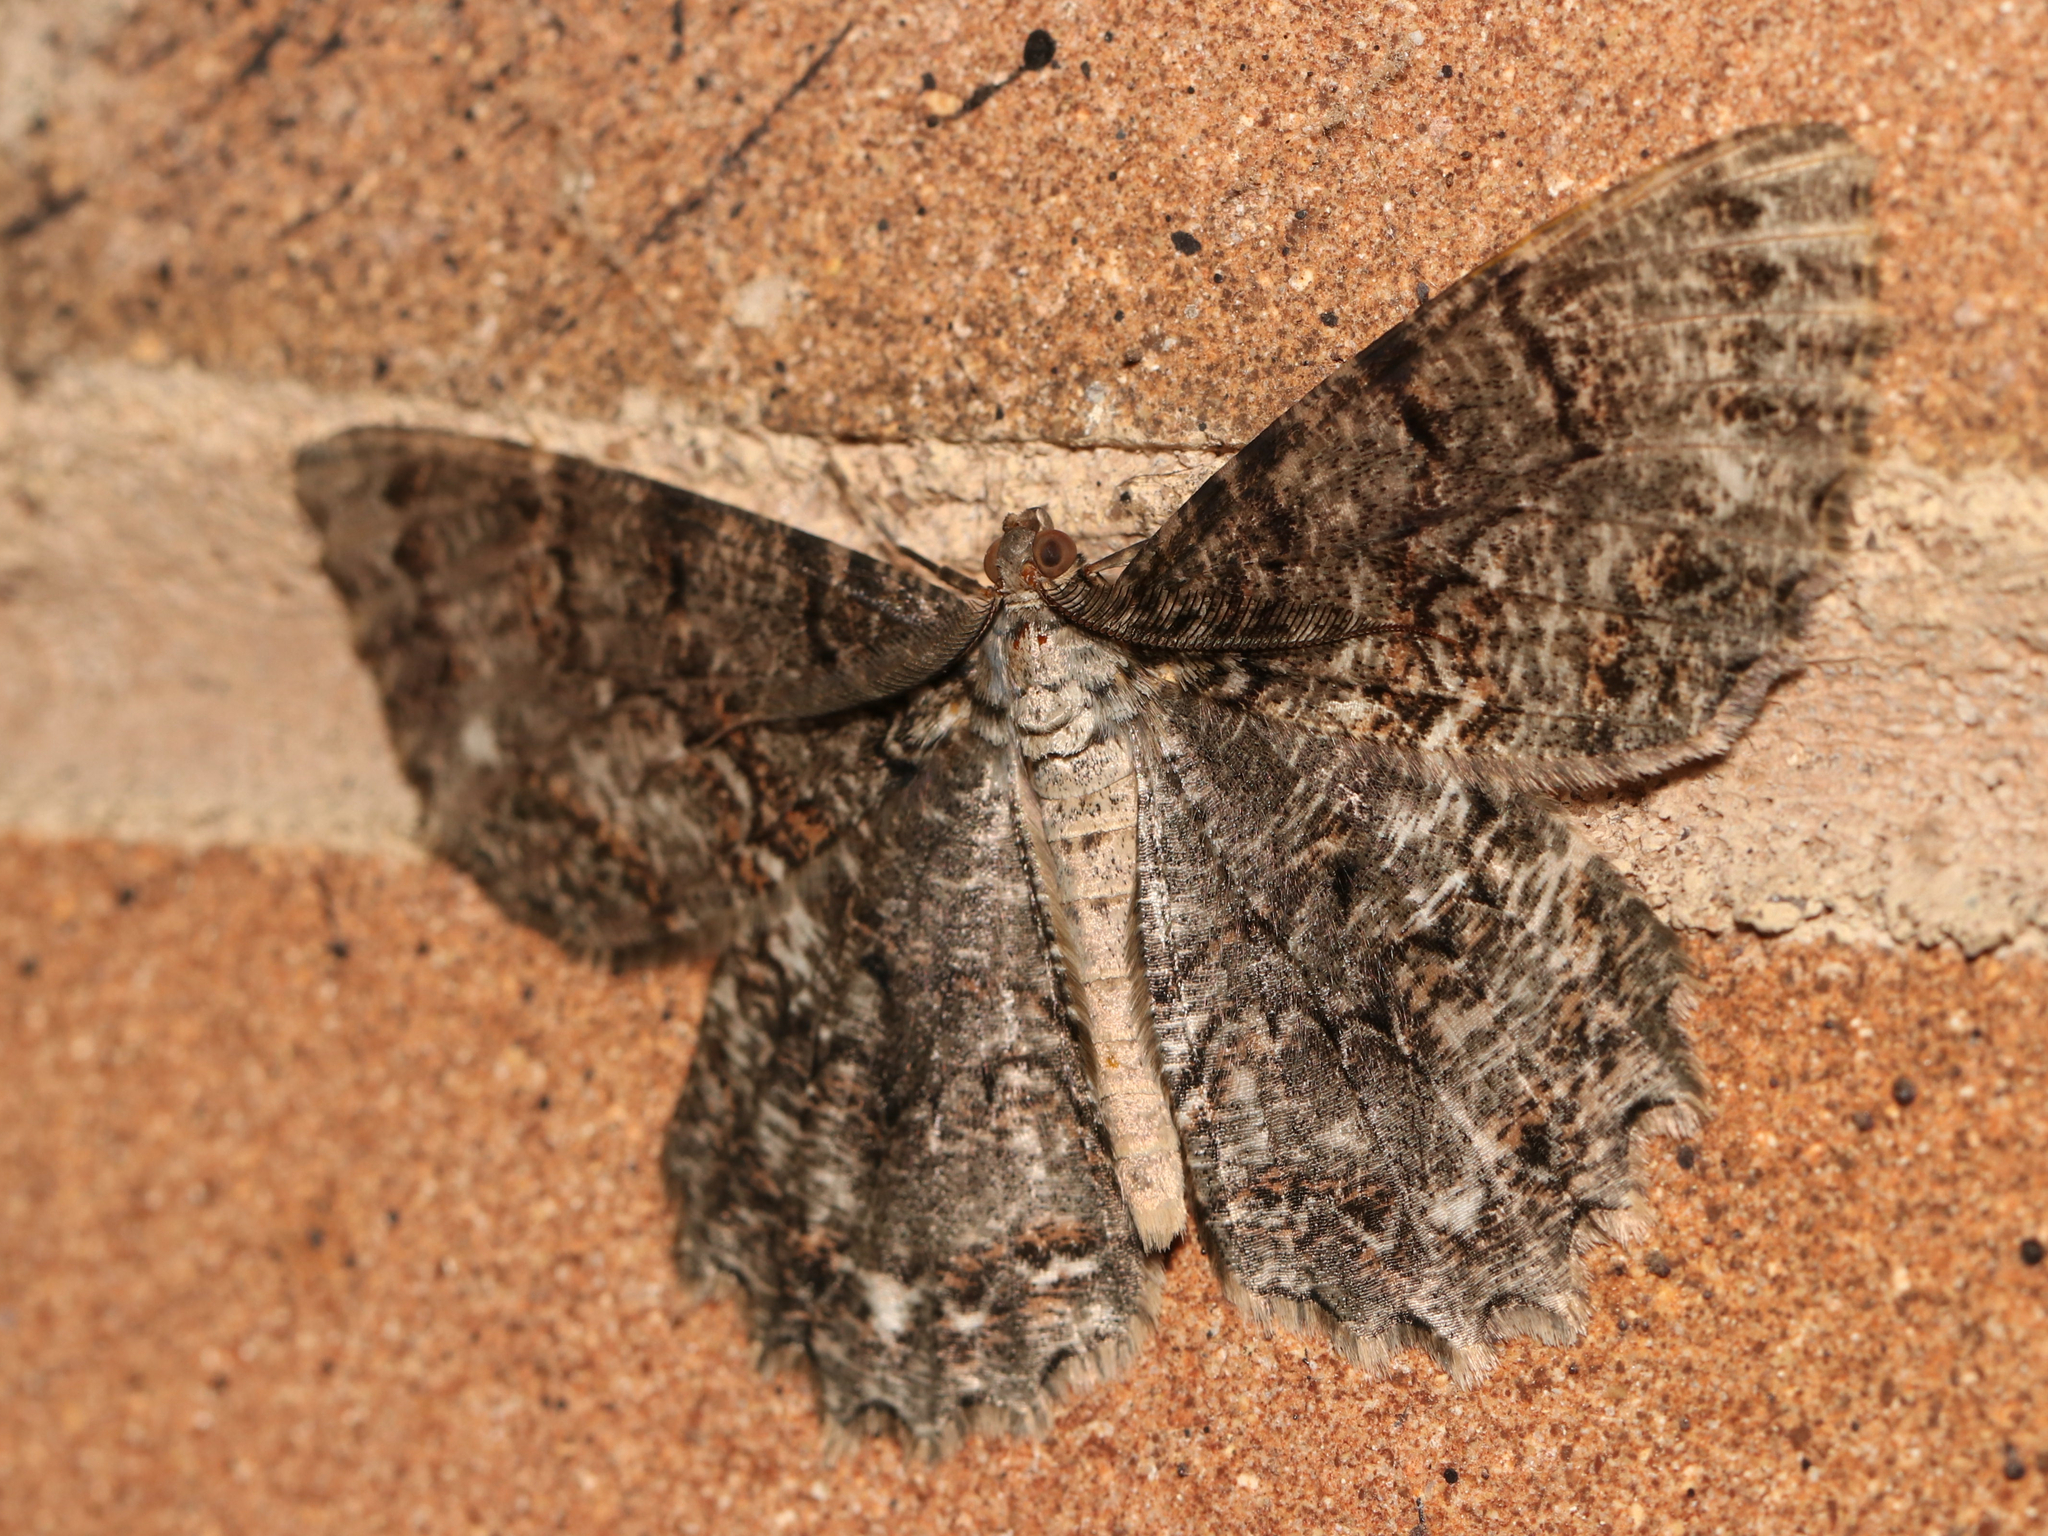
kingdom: Animalia
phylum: Arthropoda
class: Insecta
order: Lepidoptera
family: Geometridae
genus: Epimecis
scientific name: Epimecis hortaria
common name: Tulip-tree beauty
